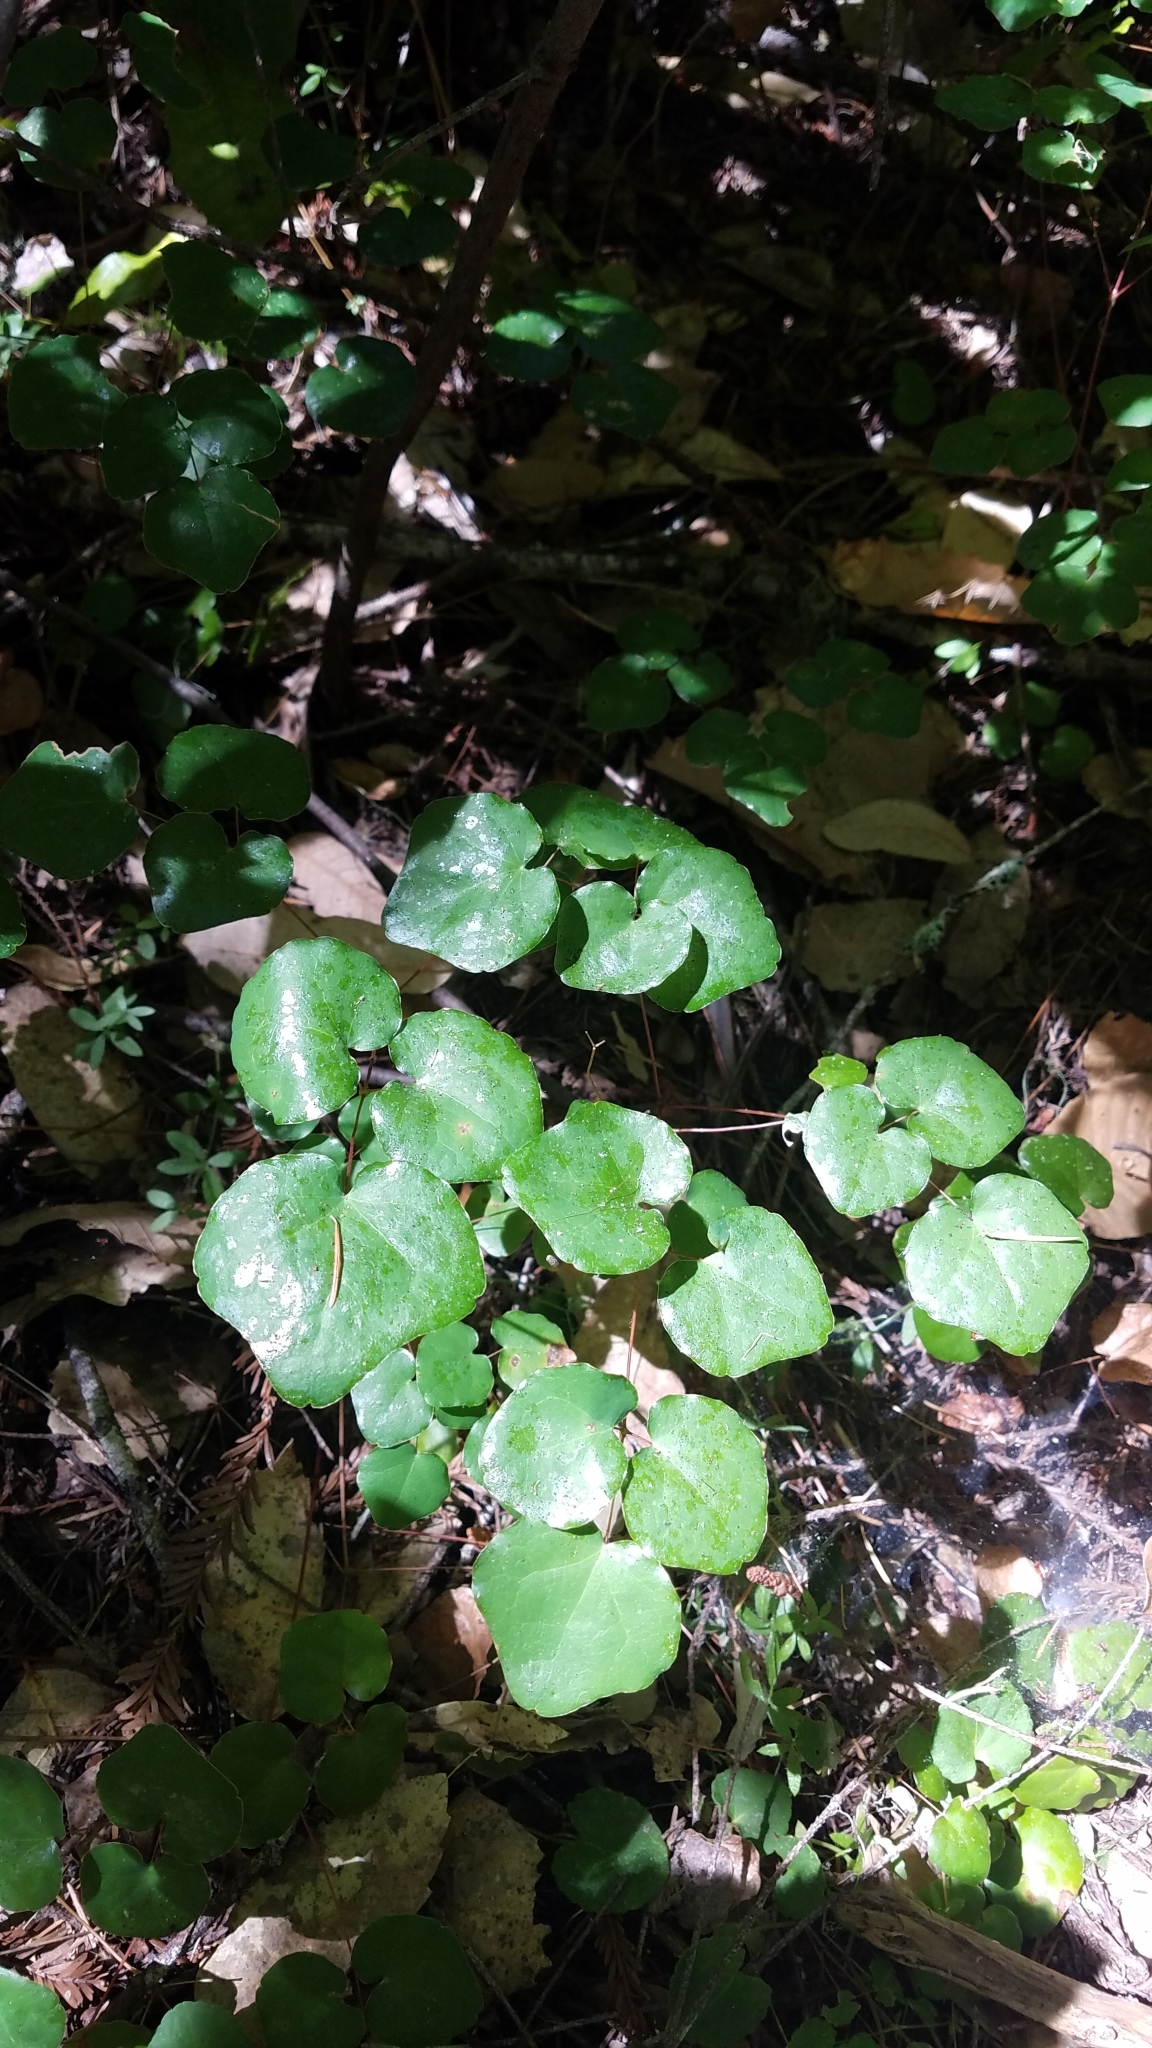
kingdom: Plantae
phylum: Tracheophyta
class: Magnoliopsida
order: Ranunculales
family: Berberidaceae
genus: Vancouveria
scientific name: Vancouveria planipetala
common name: Redwood-ivy
